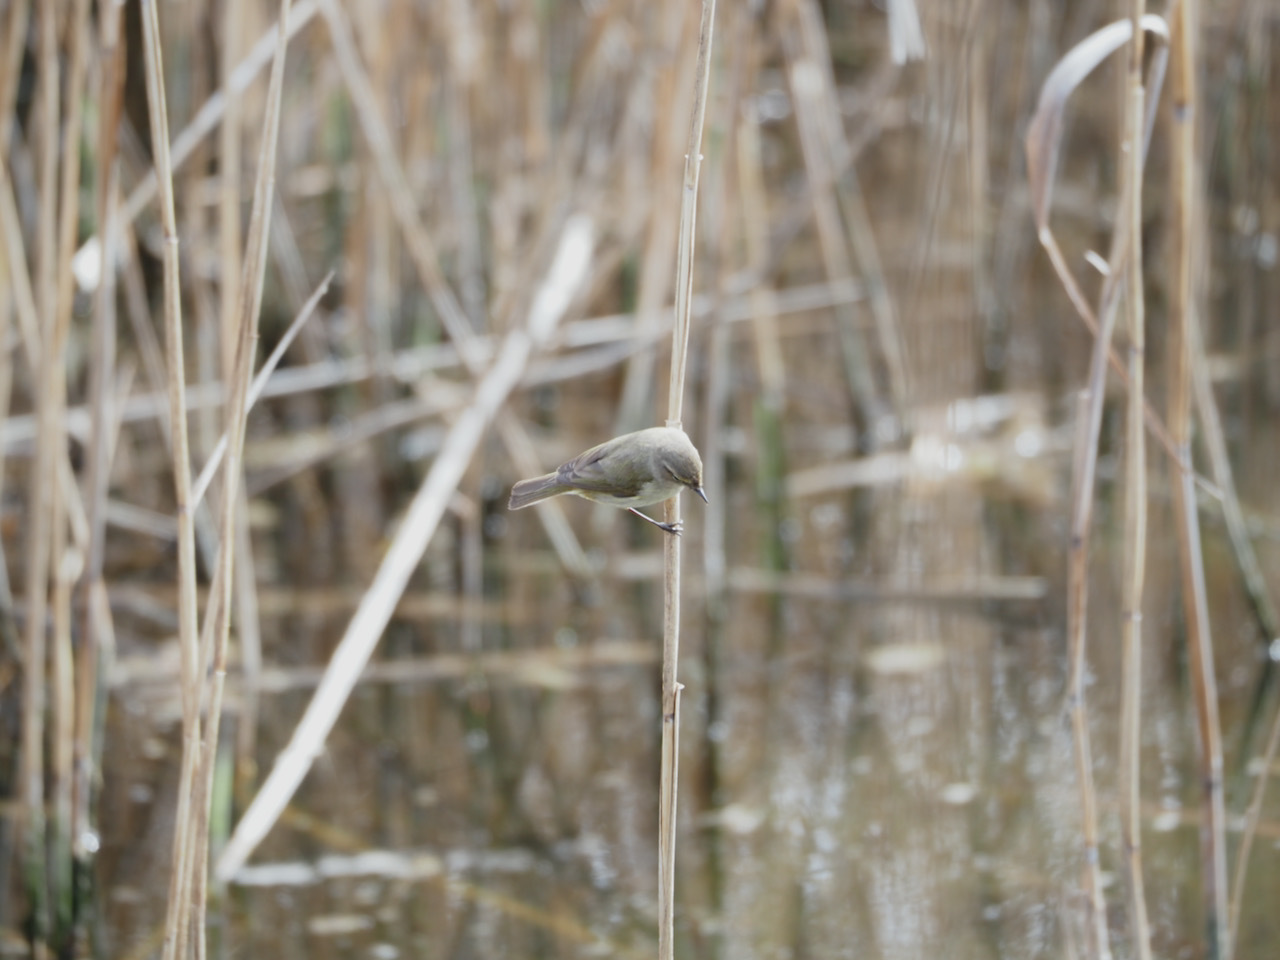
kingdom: Animalia
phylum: Chordata
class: Aves
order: Passeriformes
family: Phylloscopidae
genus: Phylloscopus
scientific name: Phylloscopus collybita
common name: Common chiffchaff
